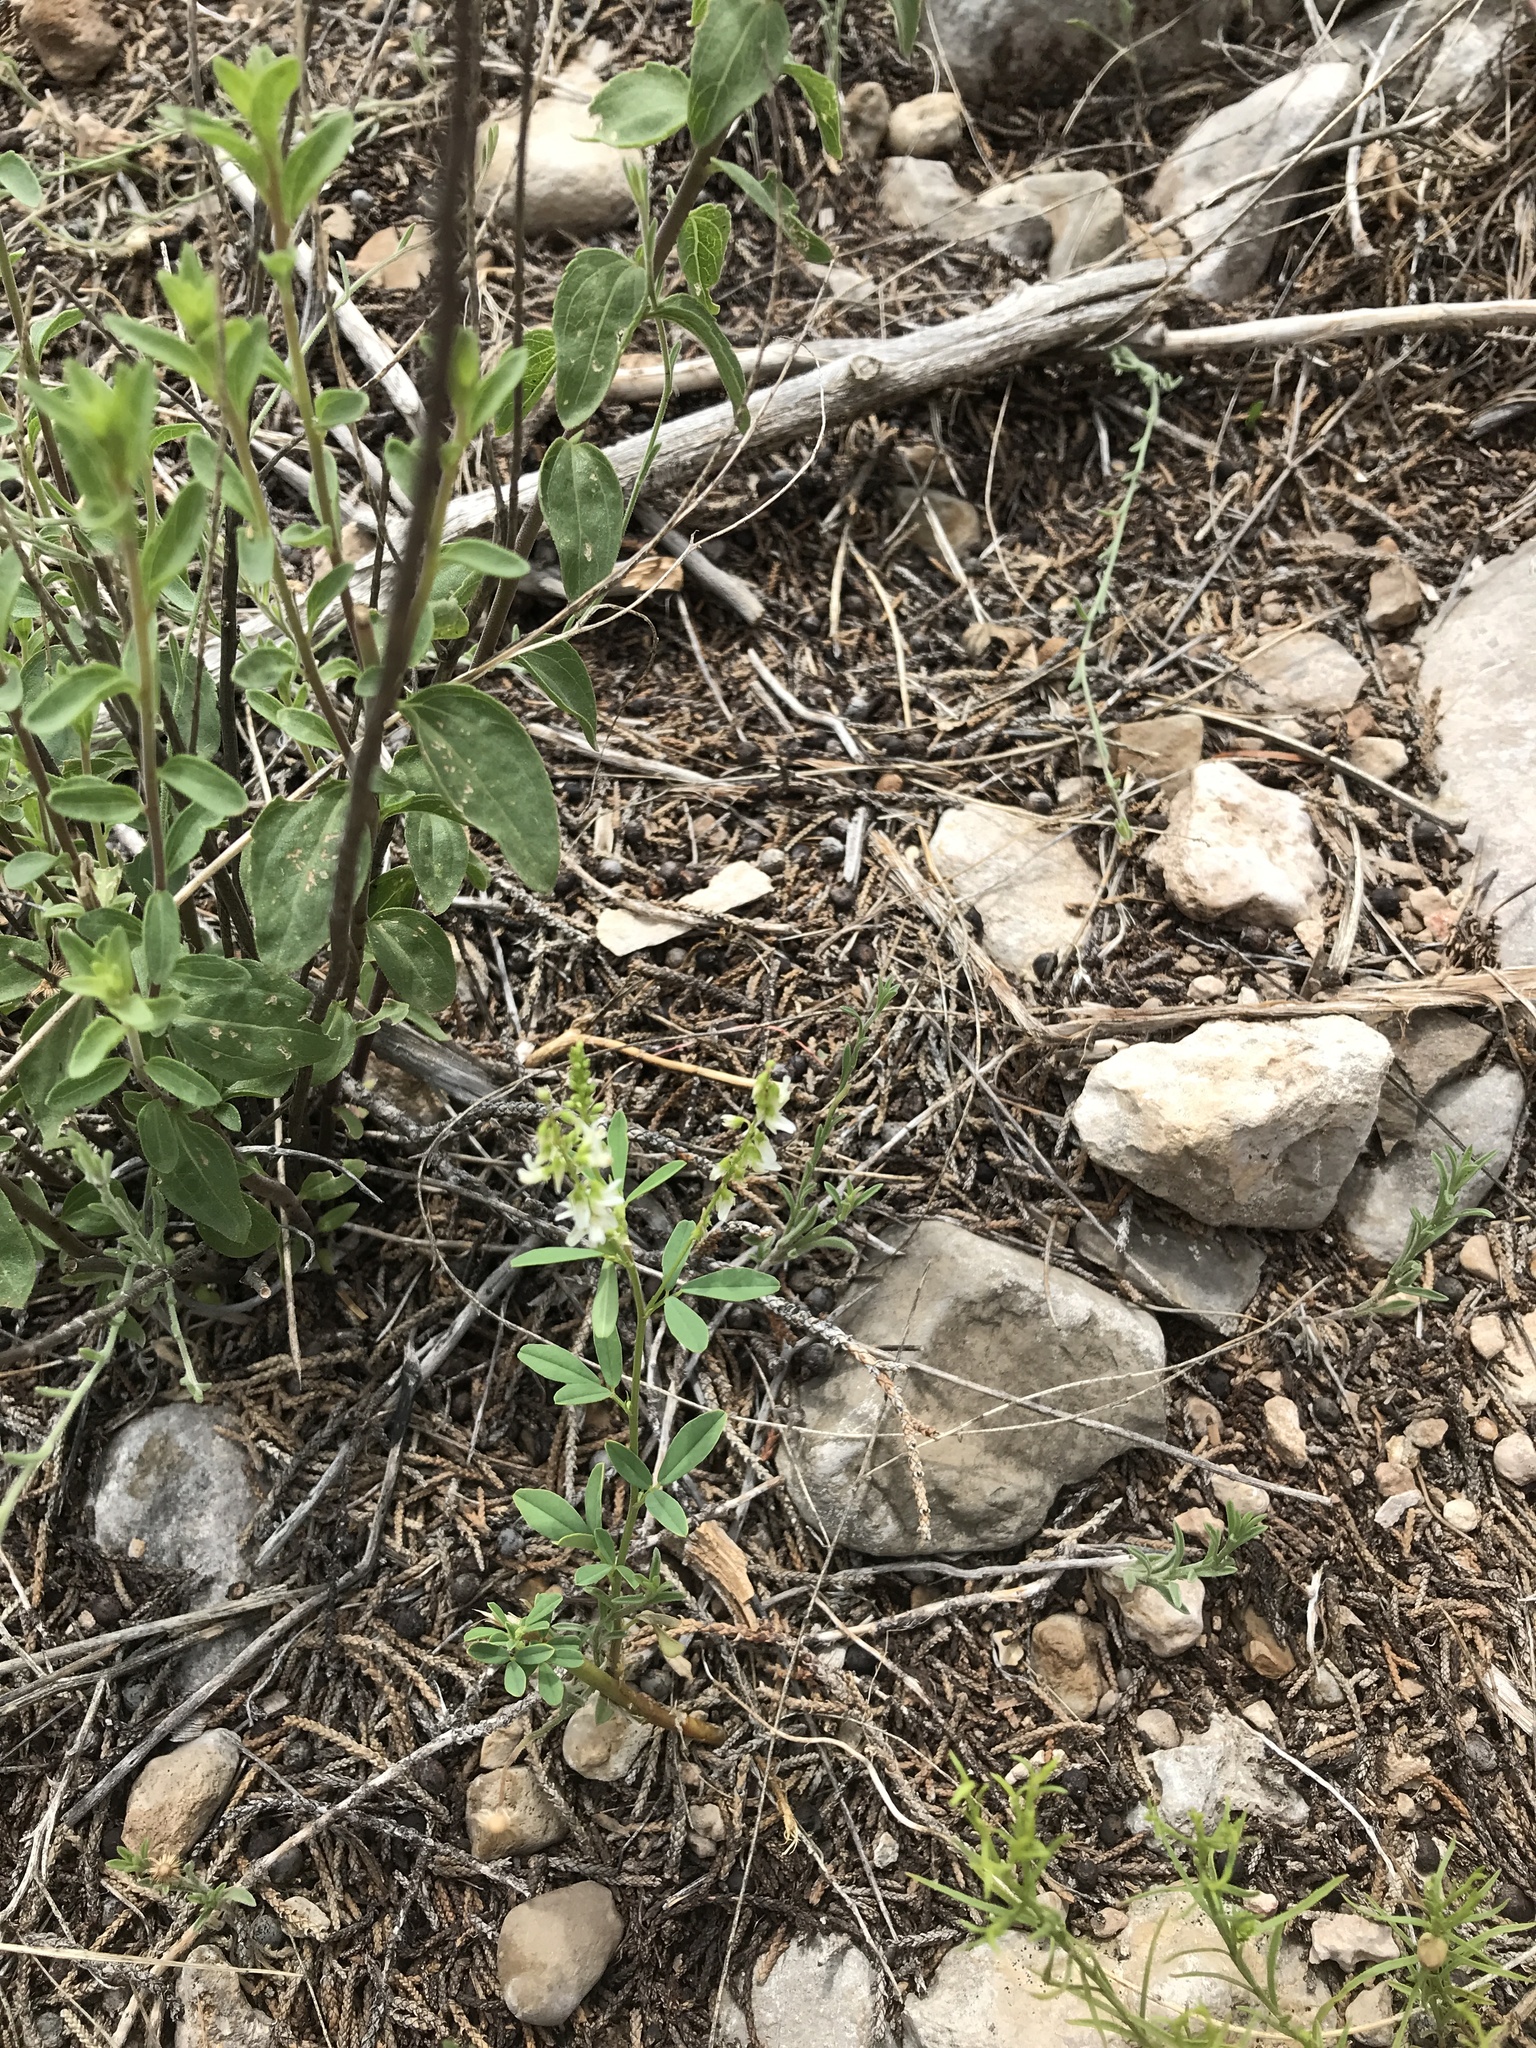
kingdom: Plantae
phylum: Tracheophyta
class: Magnoliopsida
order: Fabales
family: Fabaceae
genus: Melilotus
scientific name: Melilotus albus
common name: White melilot
